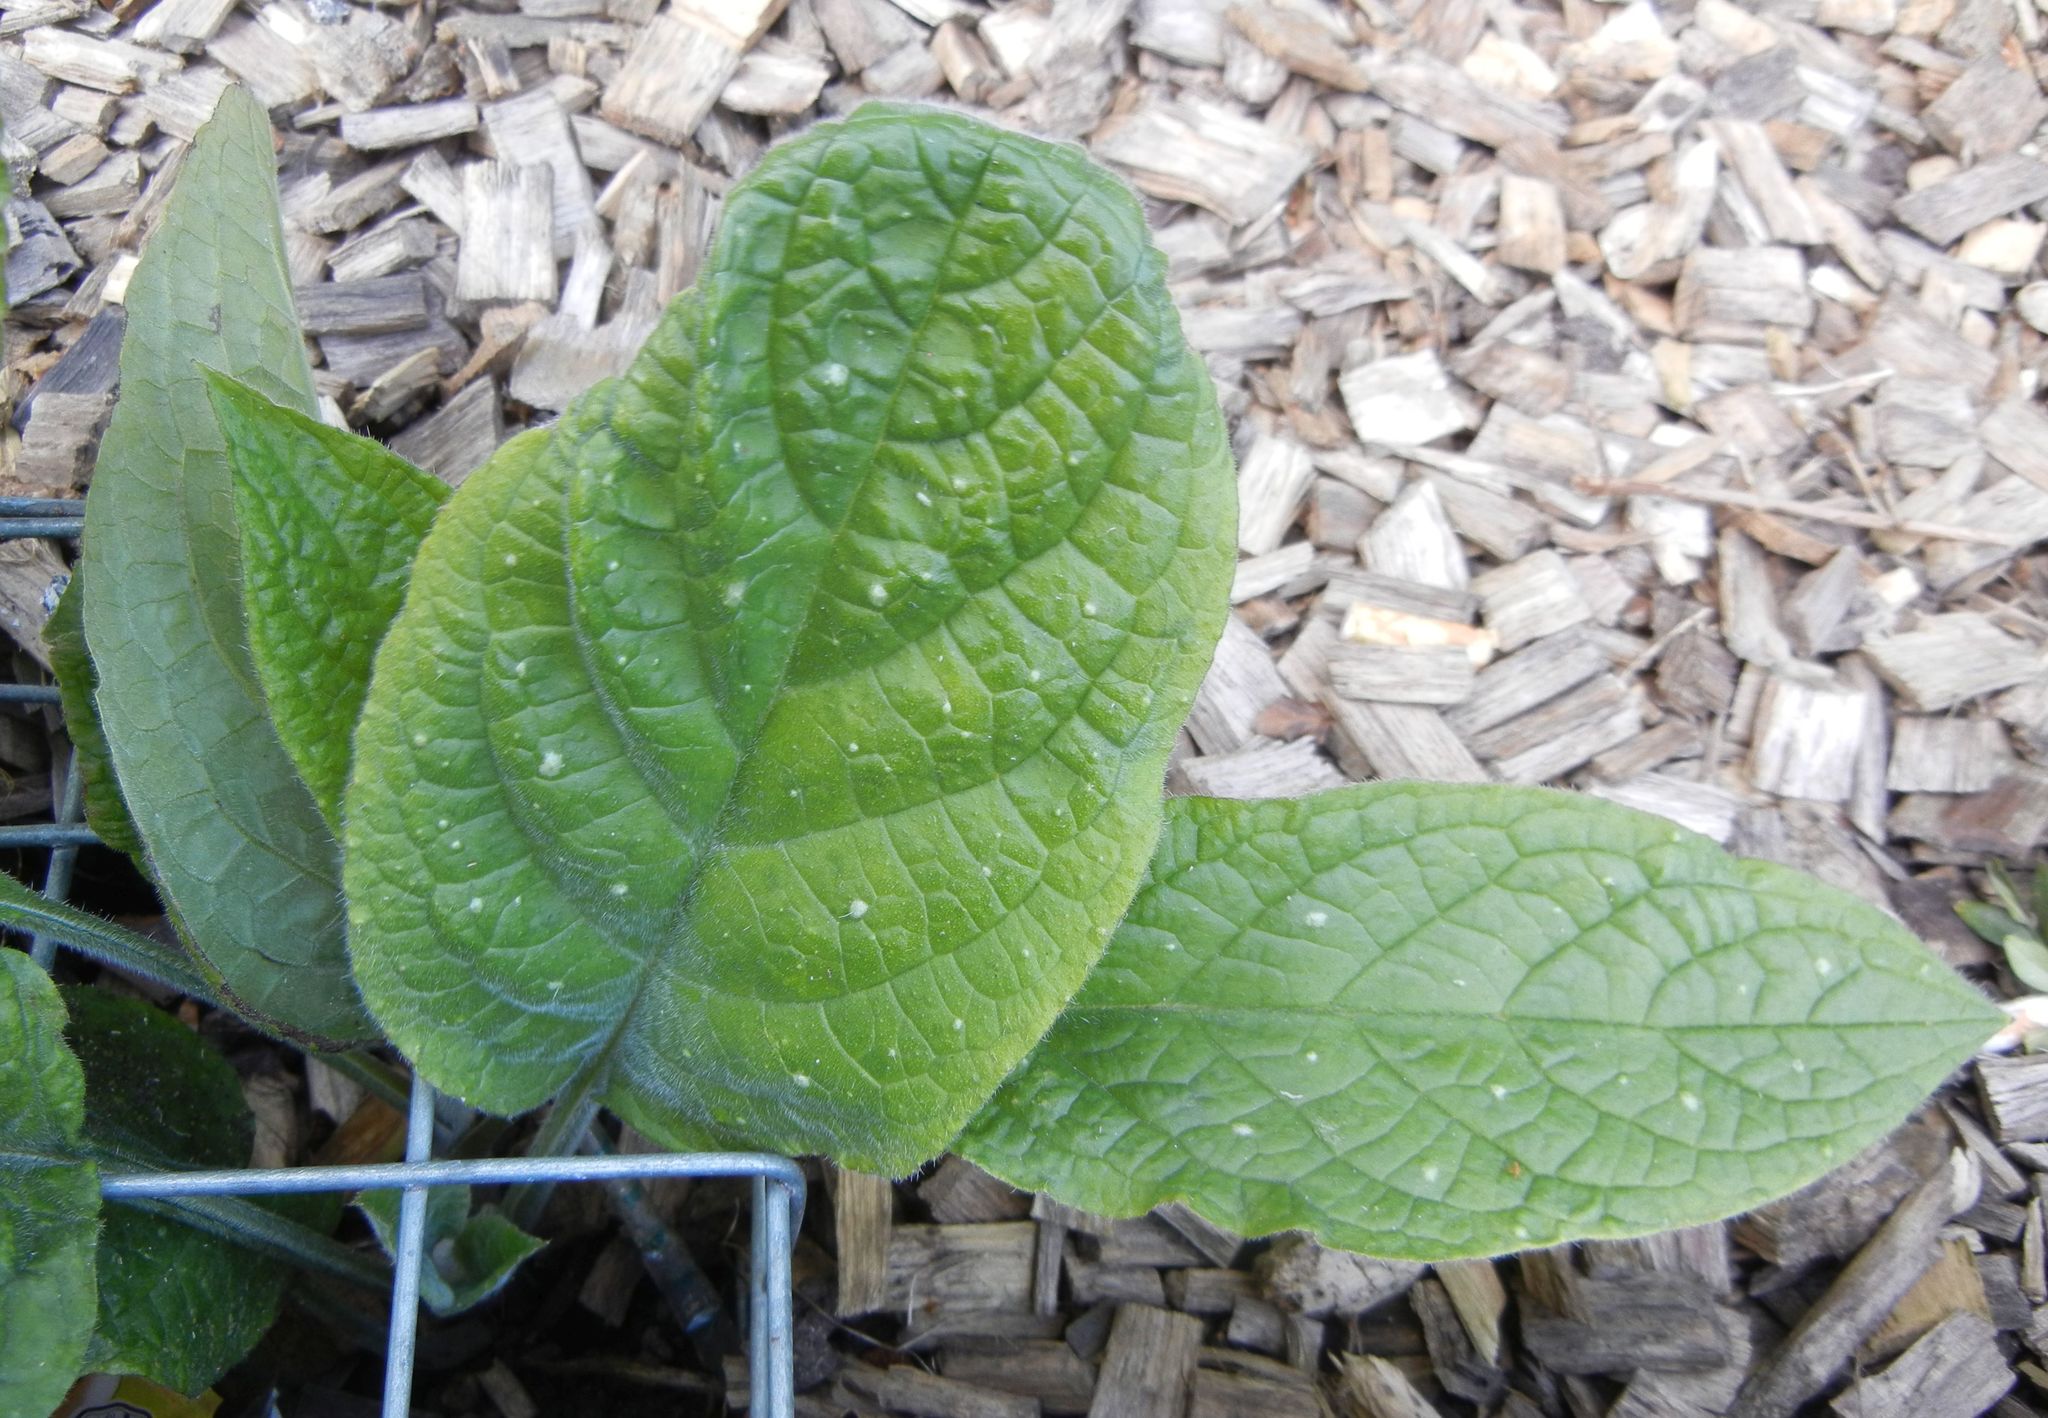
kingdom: Plantae
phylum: Tracheophyta
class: Magnoliopsida
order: Boraginales
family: Boraginaceae
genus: Pentaglottis
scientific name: Pentaglottis sempervirens
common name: Green alkanet
